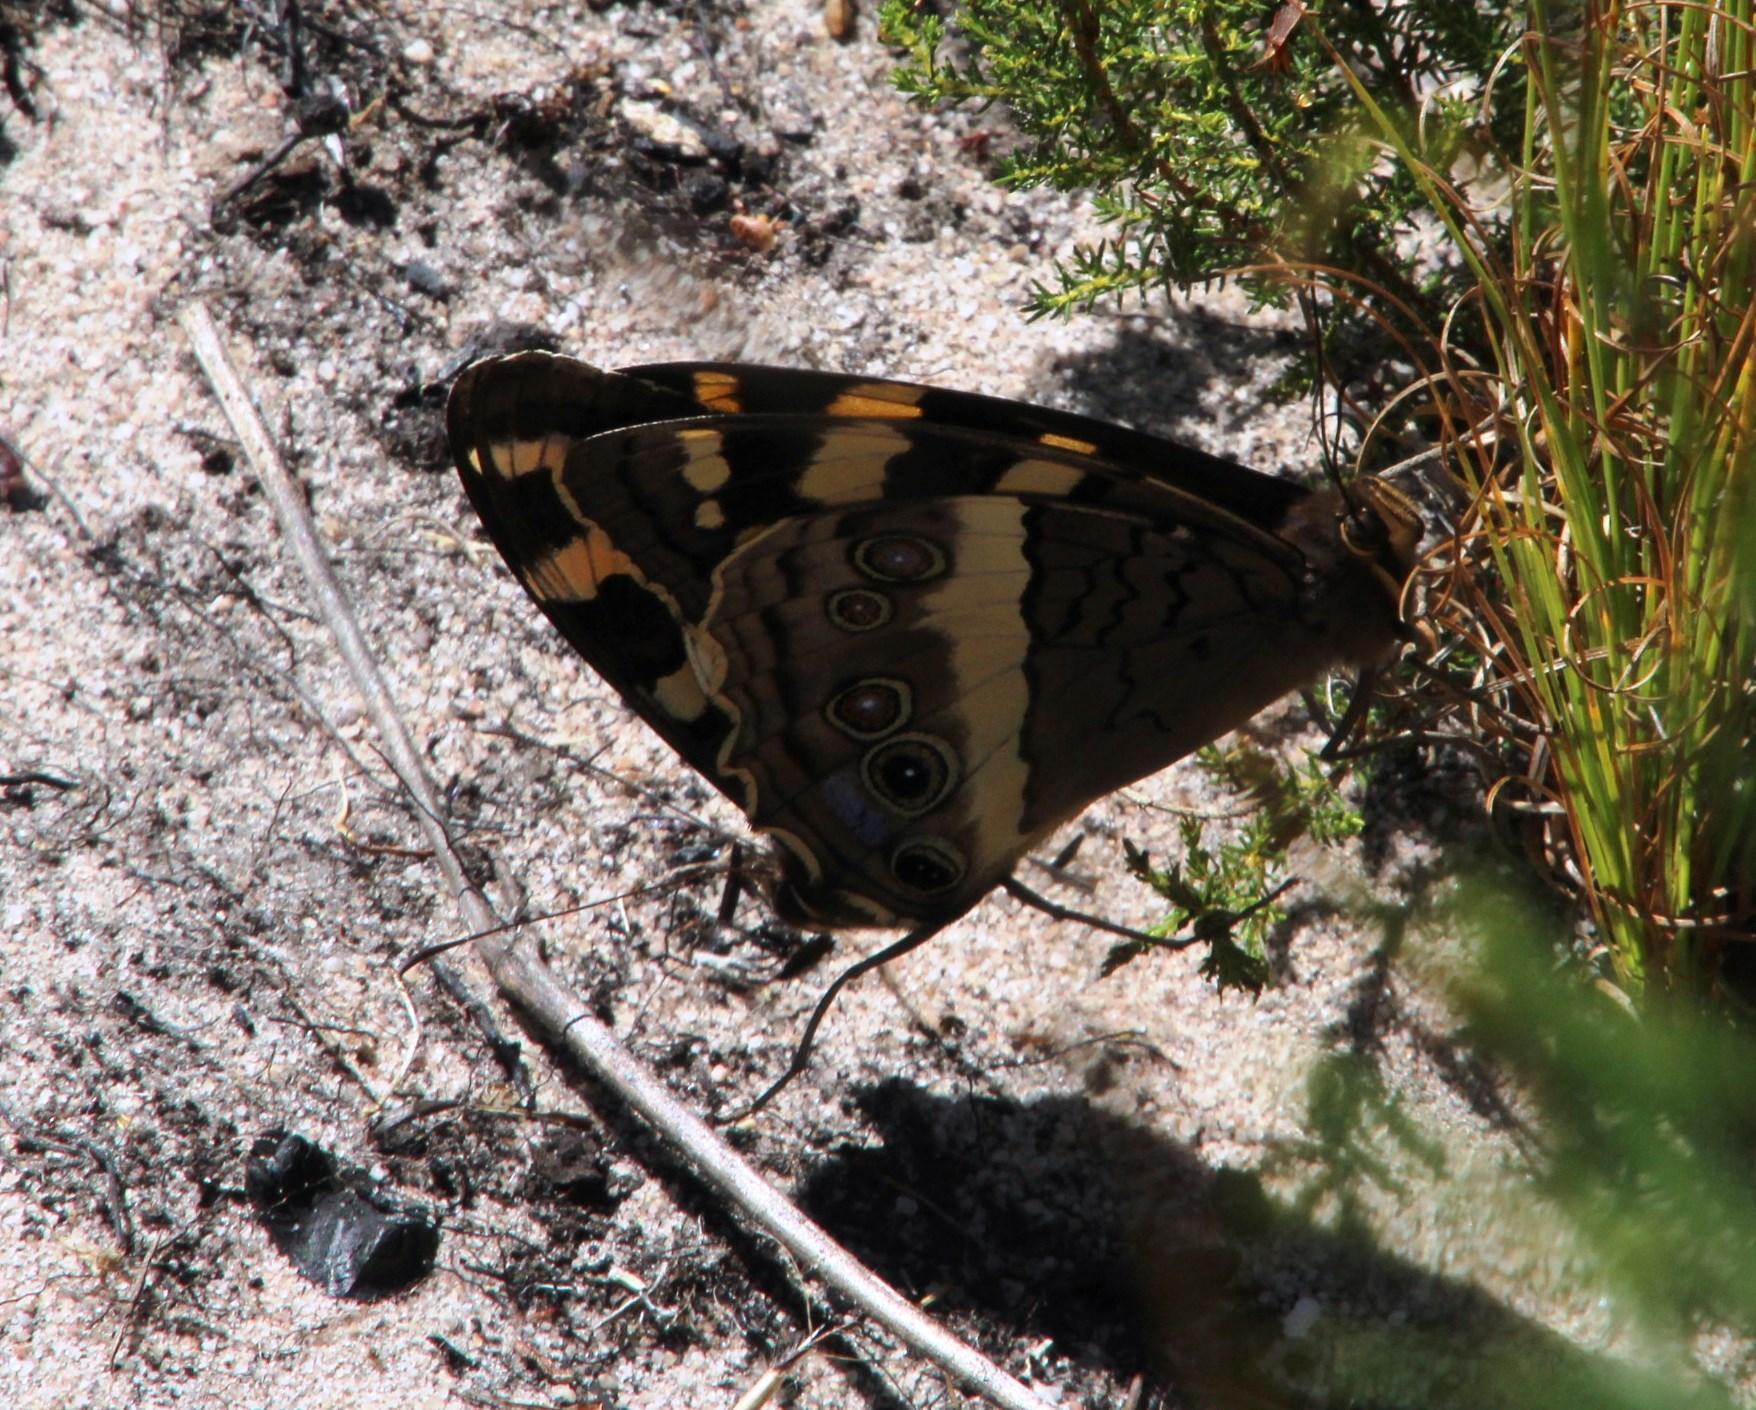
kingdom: Animalia
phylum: Arthropoda
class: Insecta
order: Lepidoptera
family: Nymphalidae
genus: Meneris
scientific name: Meneris Aeropetes tulbaghia
